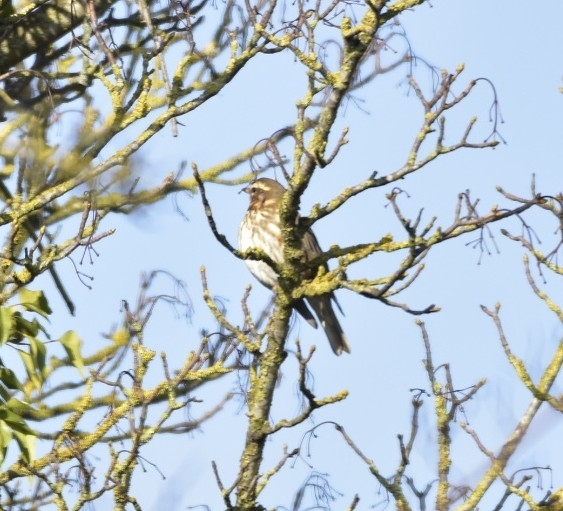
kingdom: Animalia
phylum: Chordata
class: Aves
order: Passeriformes
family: Turdidae
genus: Turdus
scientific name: Turdus iliacus
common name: Redwing
